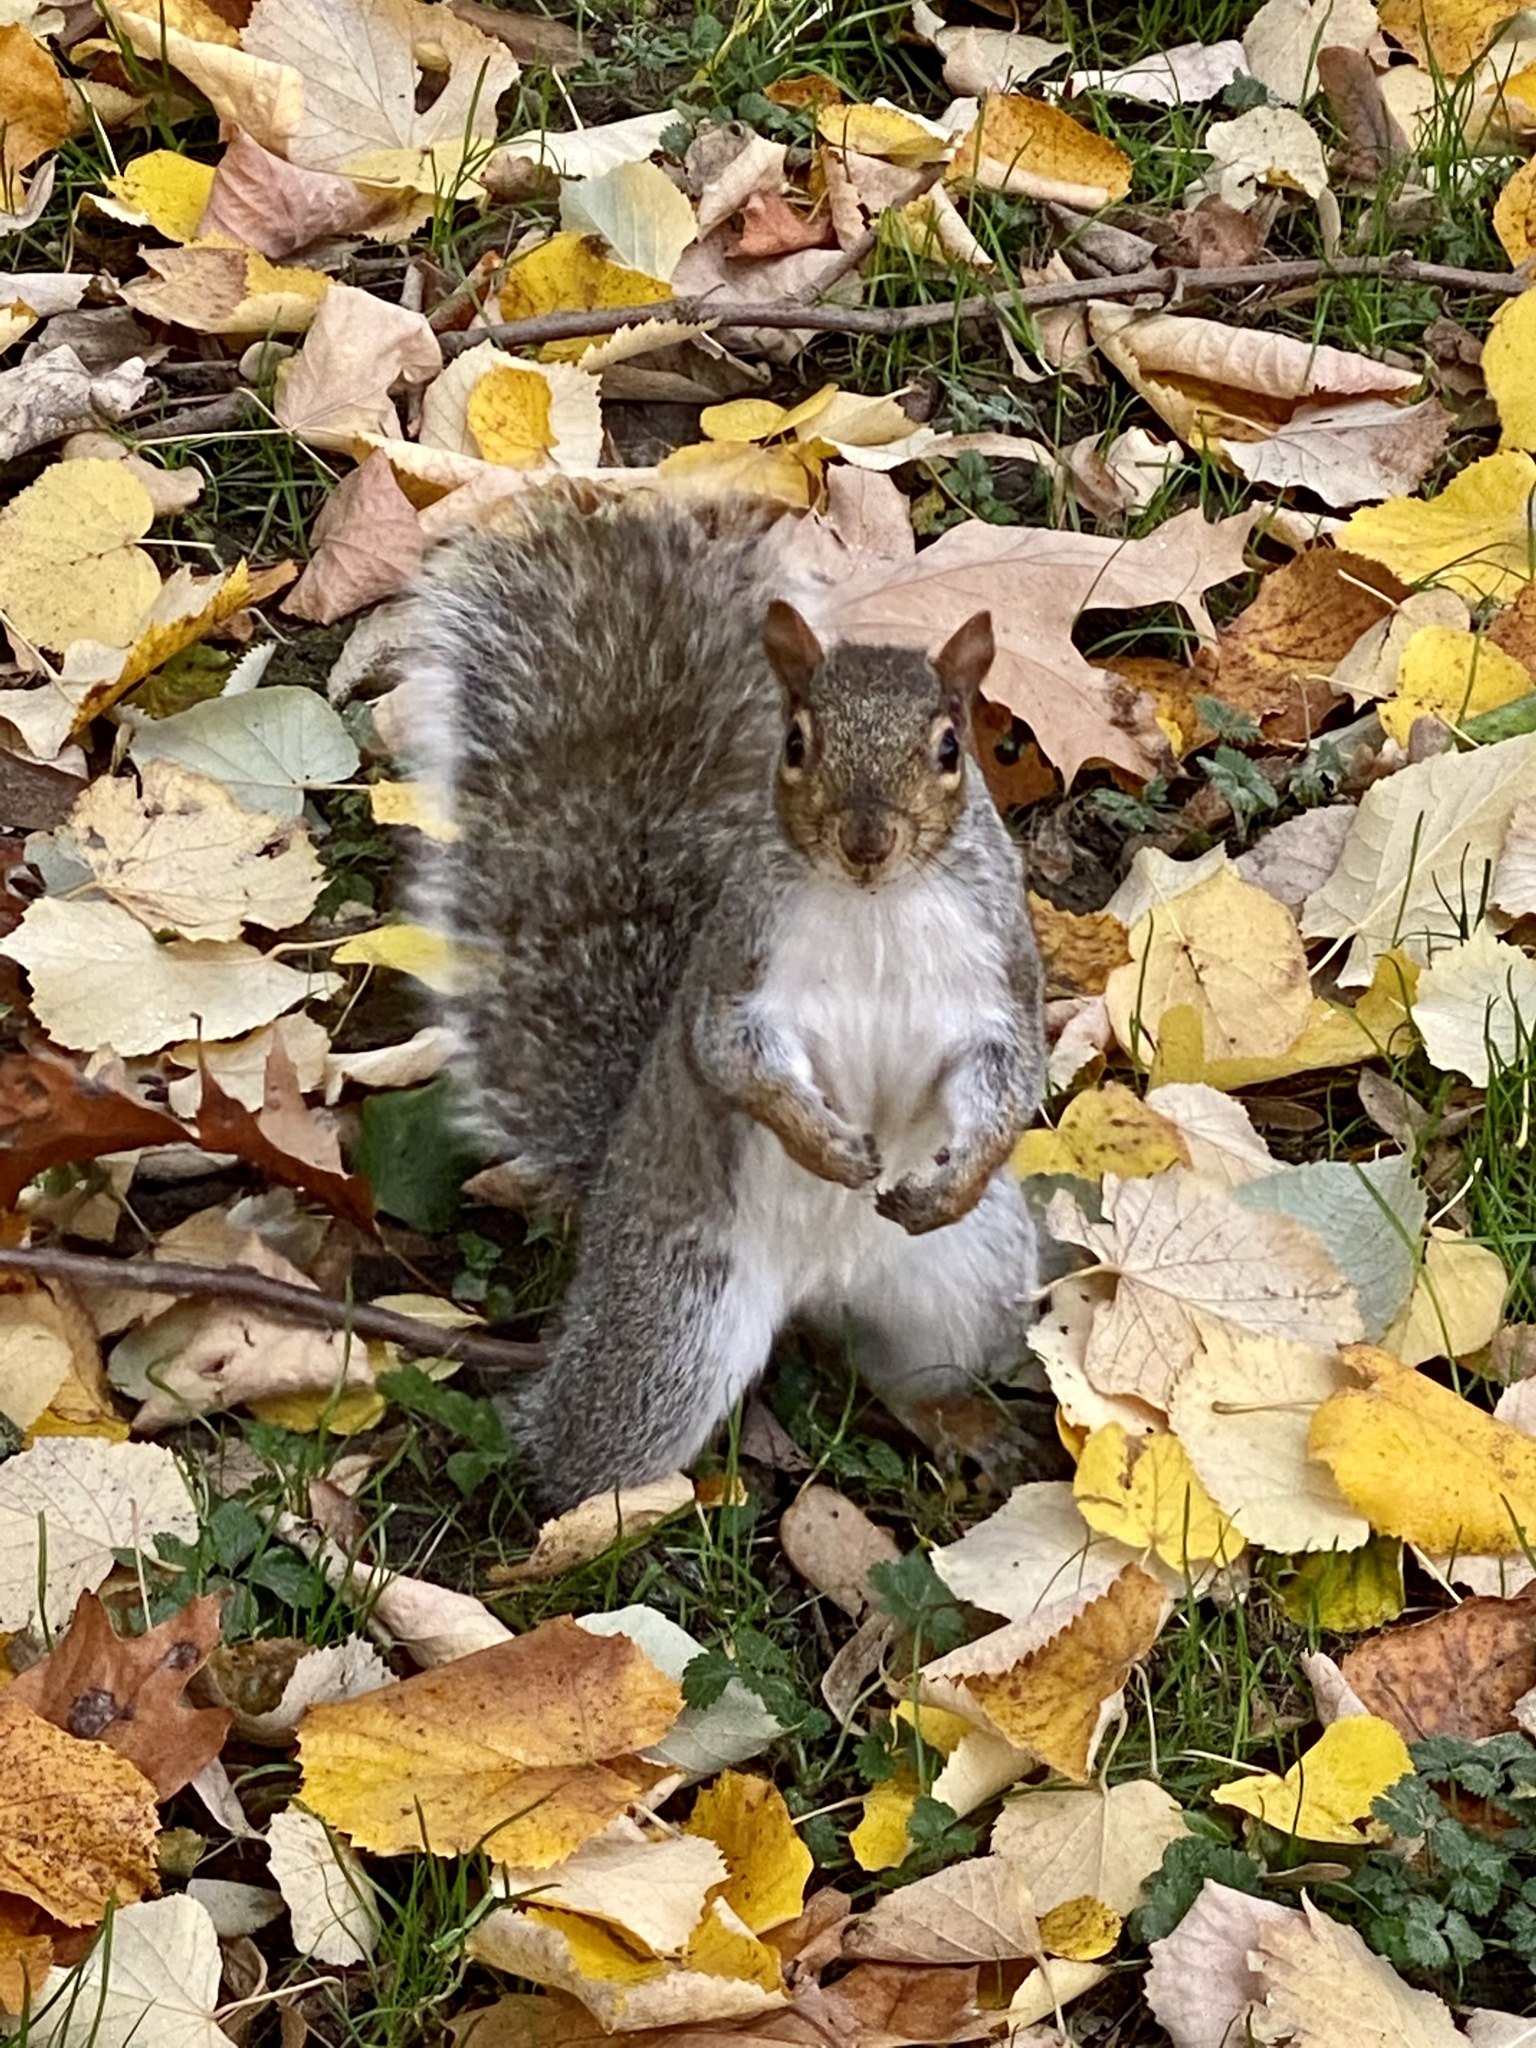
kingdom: Animalia
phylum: Chordata
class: Mammalia
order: Rodentia
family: Sciuridae
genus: Sciurus
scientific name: Sciurus carolinensis
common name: Eastern gray squirrel
